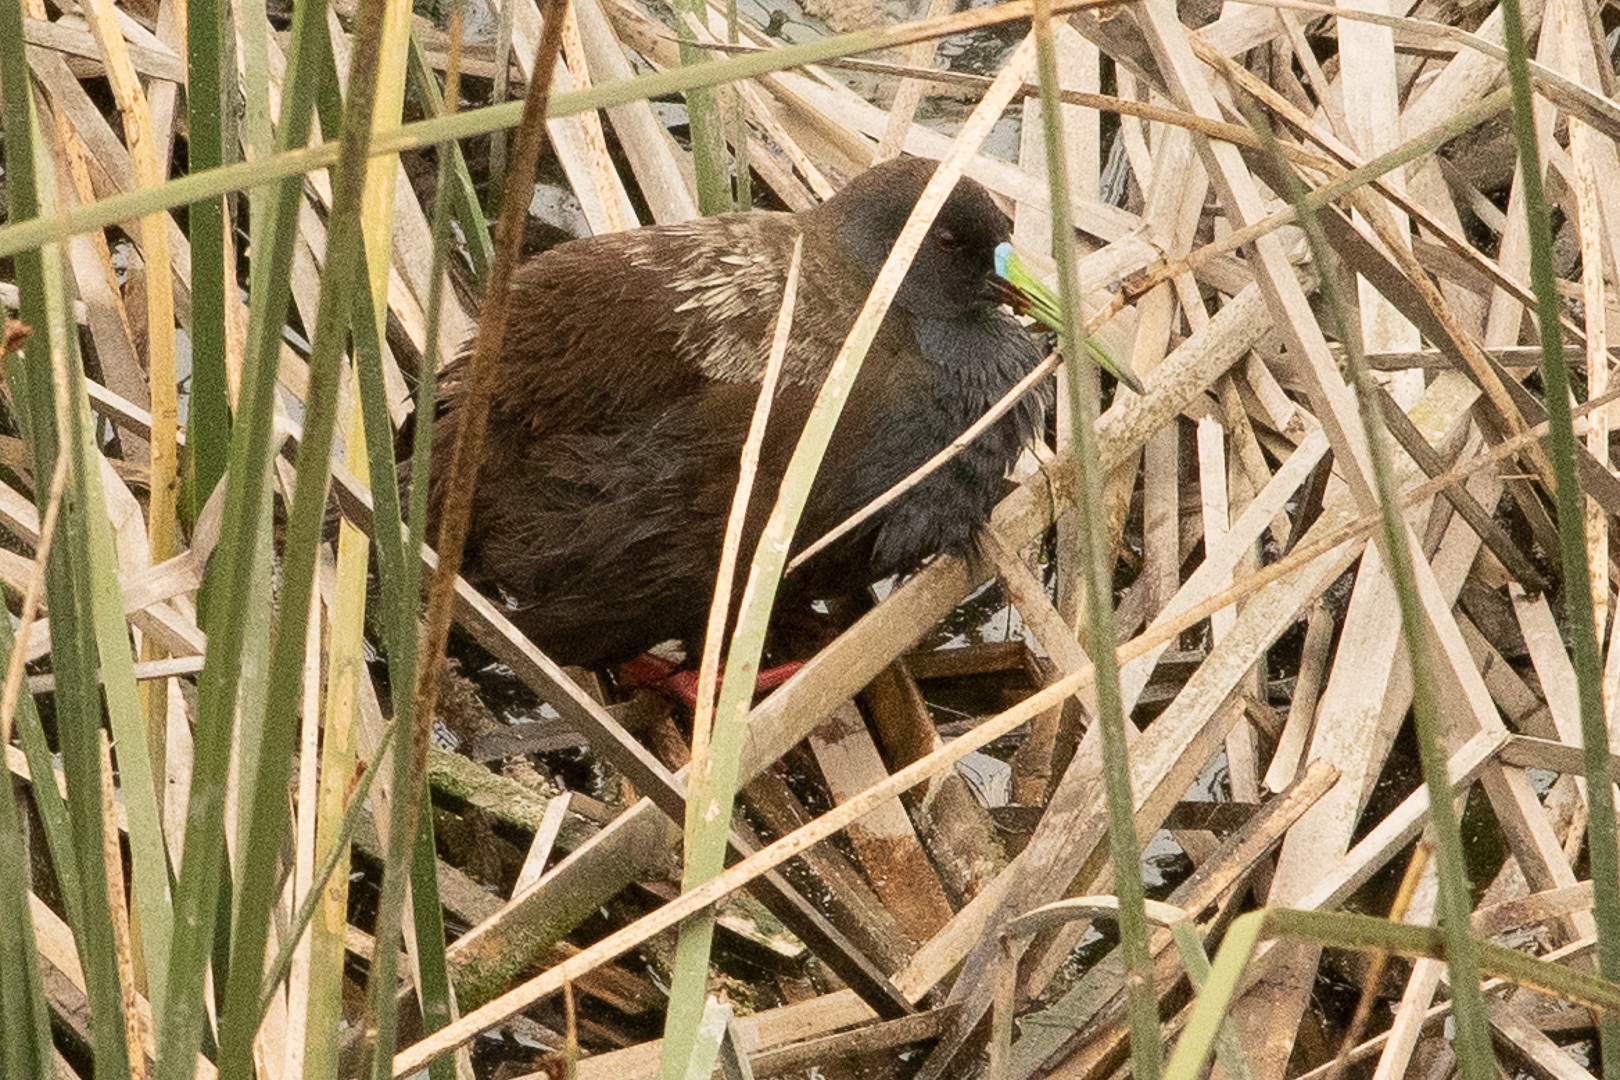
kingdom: Animalia
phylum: Chordata
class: Aves
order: Gruiformes
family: Rallidae
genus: Pardirallus
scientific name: Pardirallus sanguinolentus
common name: Plumbeous rail
